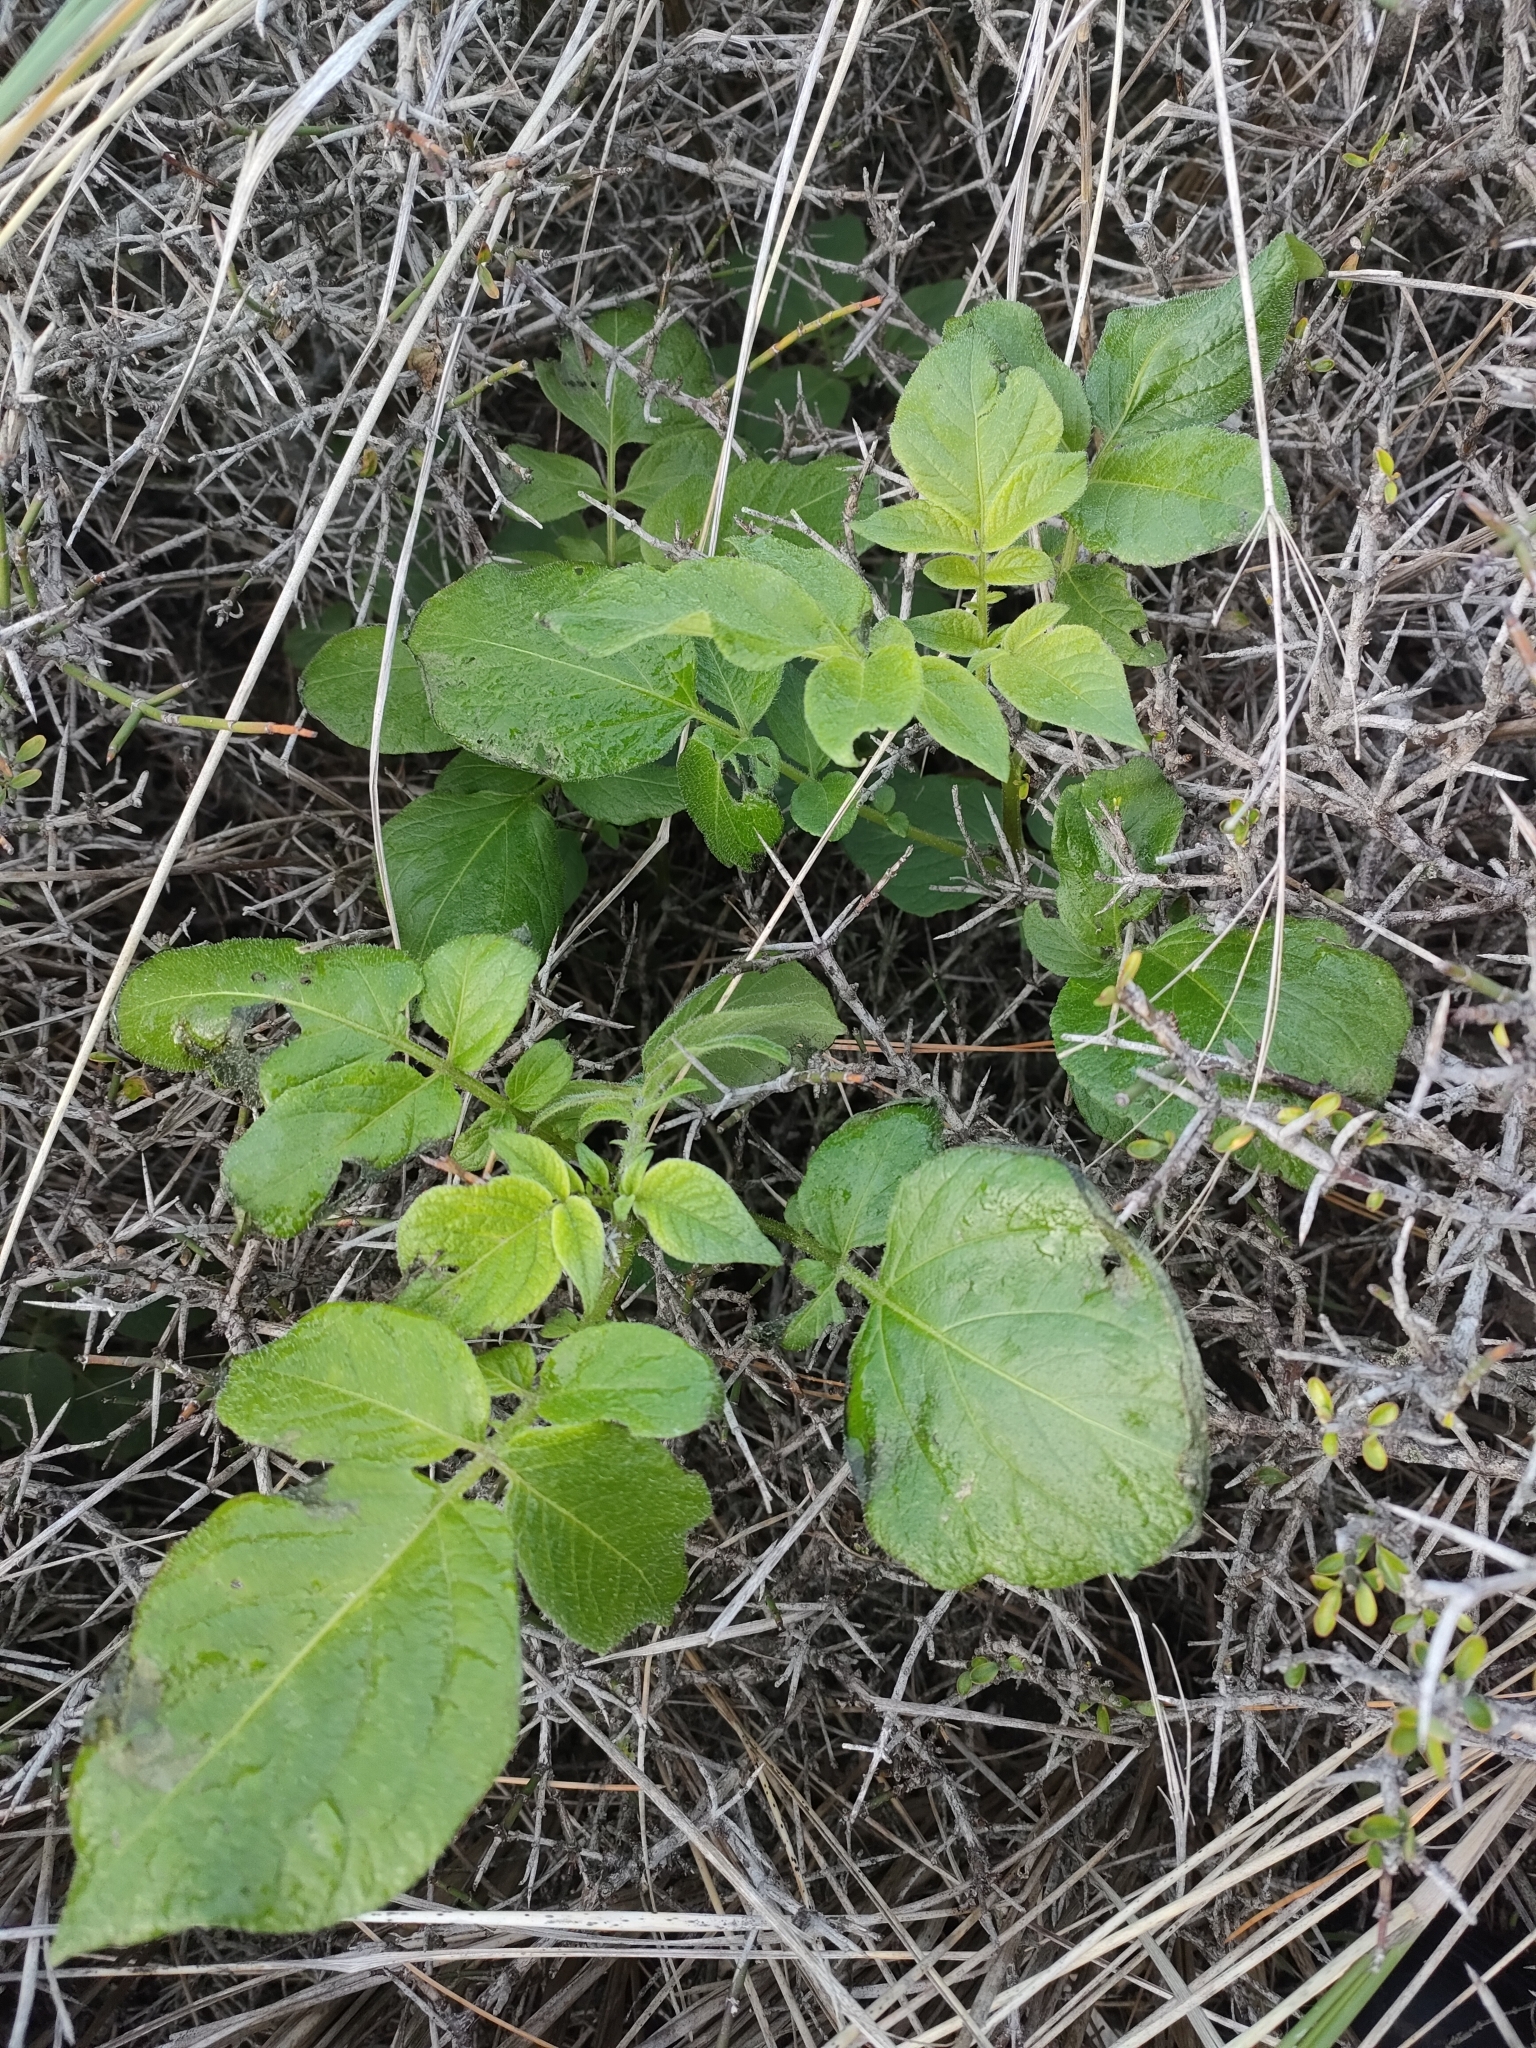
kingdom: Plantae
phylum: Tracheophyta
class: Magnoliopsida
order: Solanales
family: Solanaceae
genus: Solanum
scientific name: Solanum tuberosum
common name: Potato
